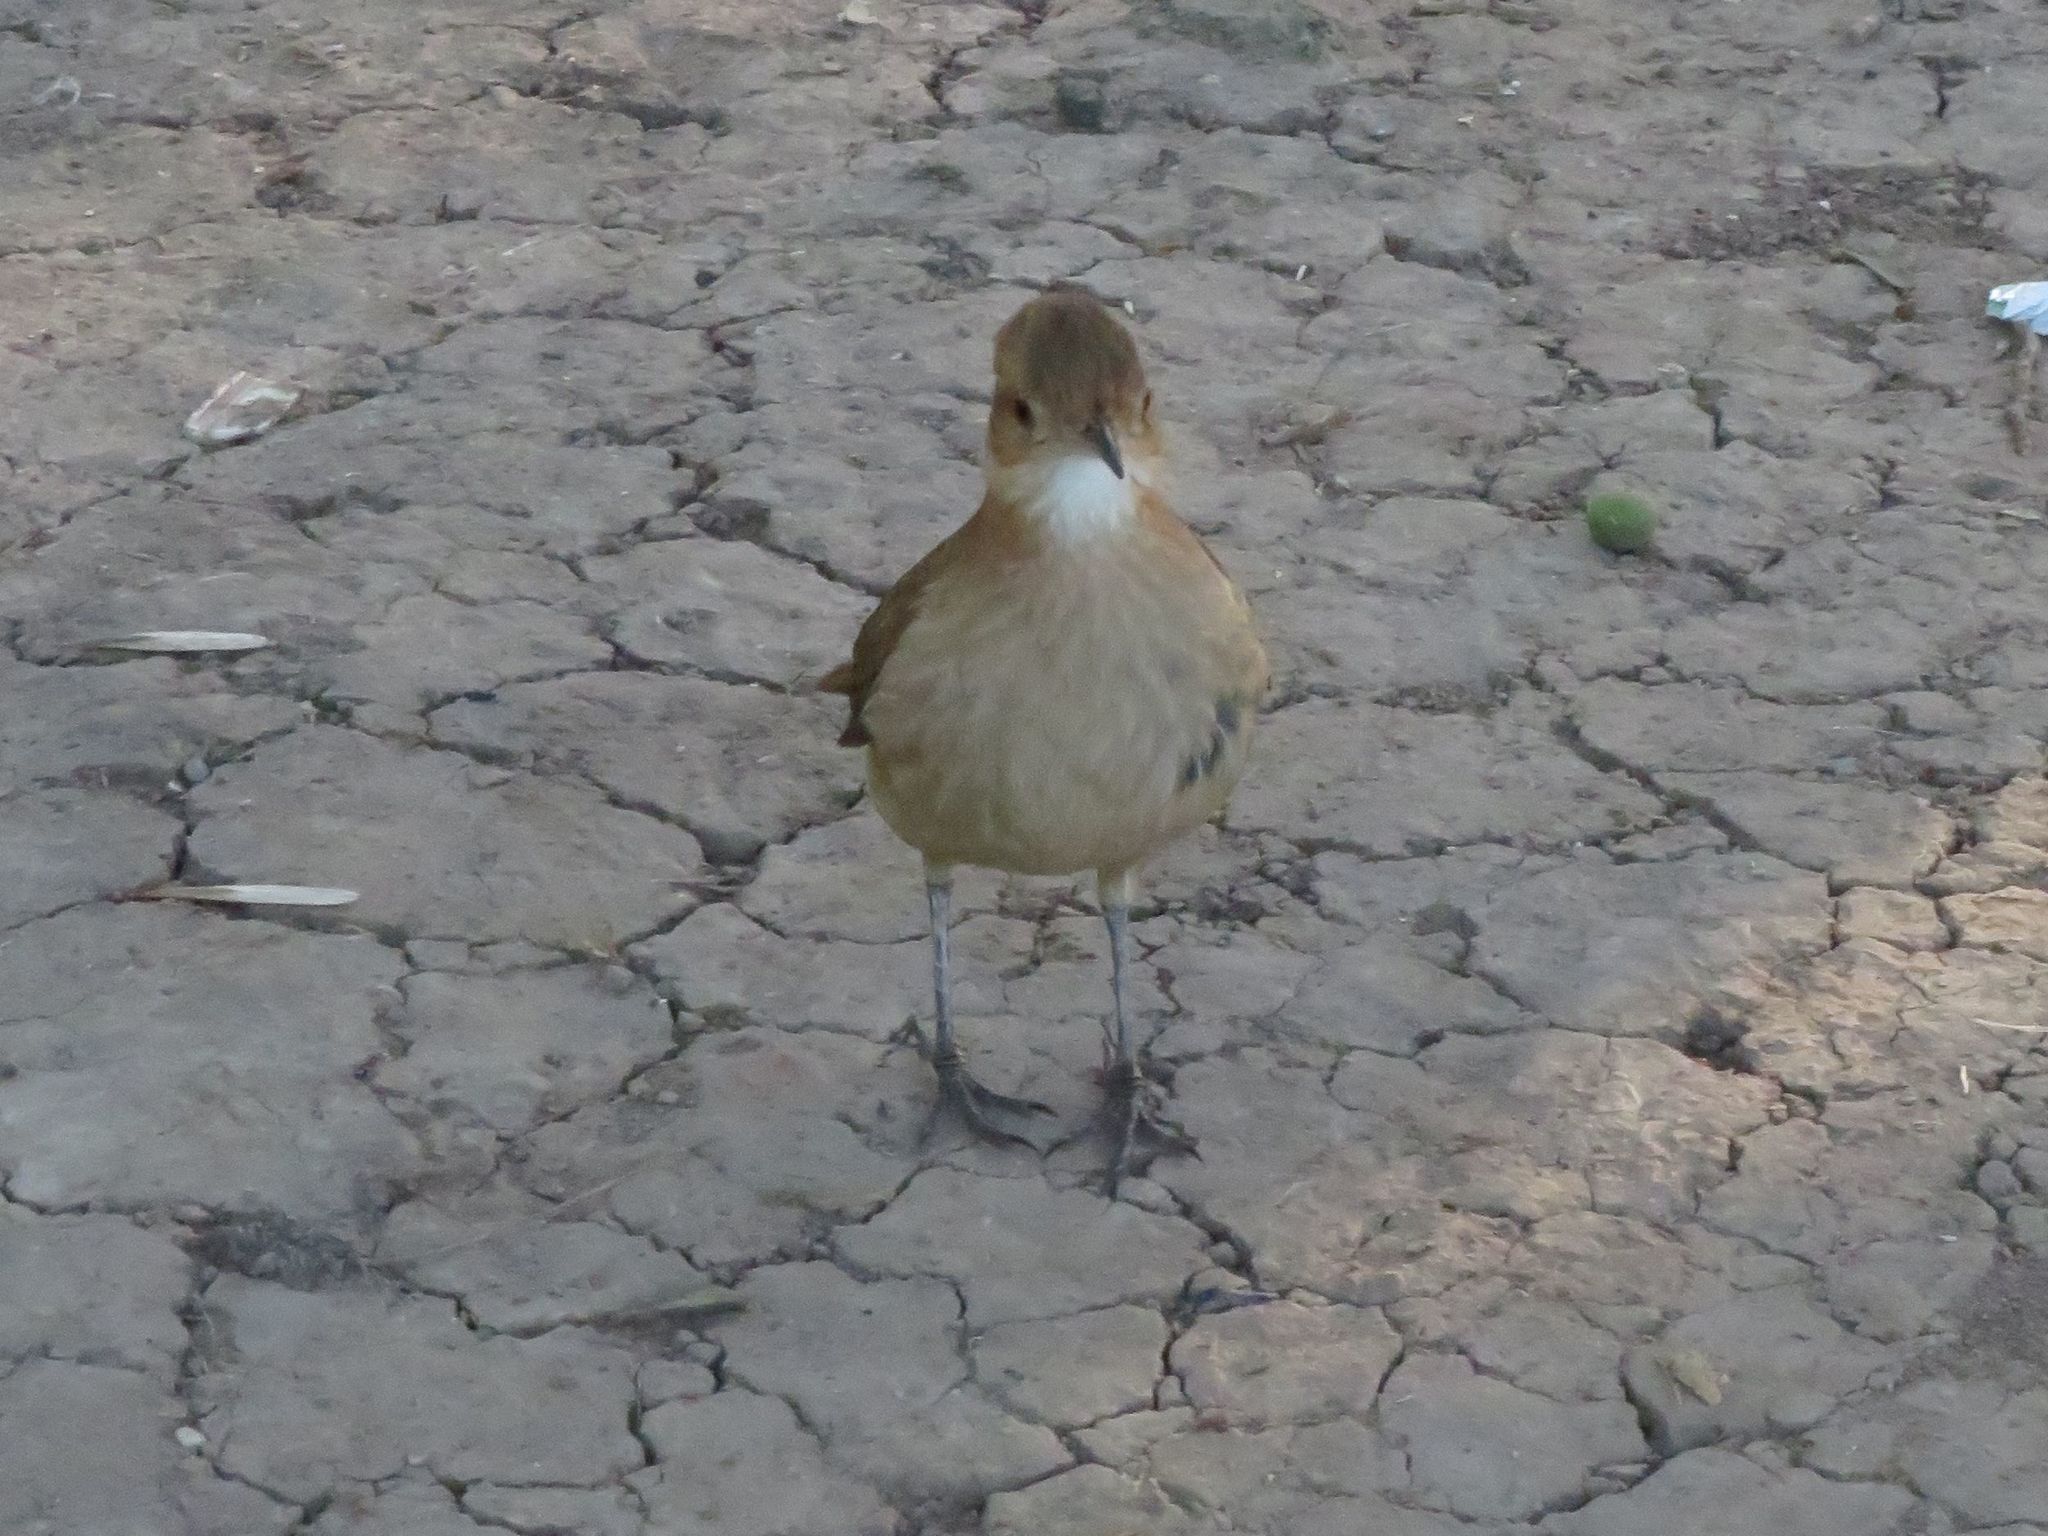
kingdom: Animalia
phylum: Chordata
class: Aves
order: Passeriformes
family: Furnariidae
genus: Furnarius
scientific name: Furnarius rufus
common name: Rufous hornero
